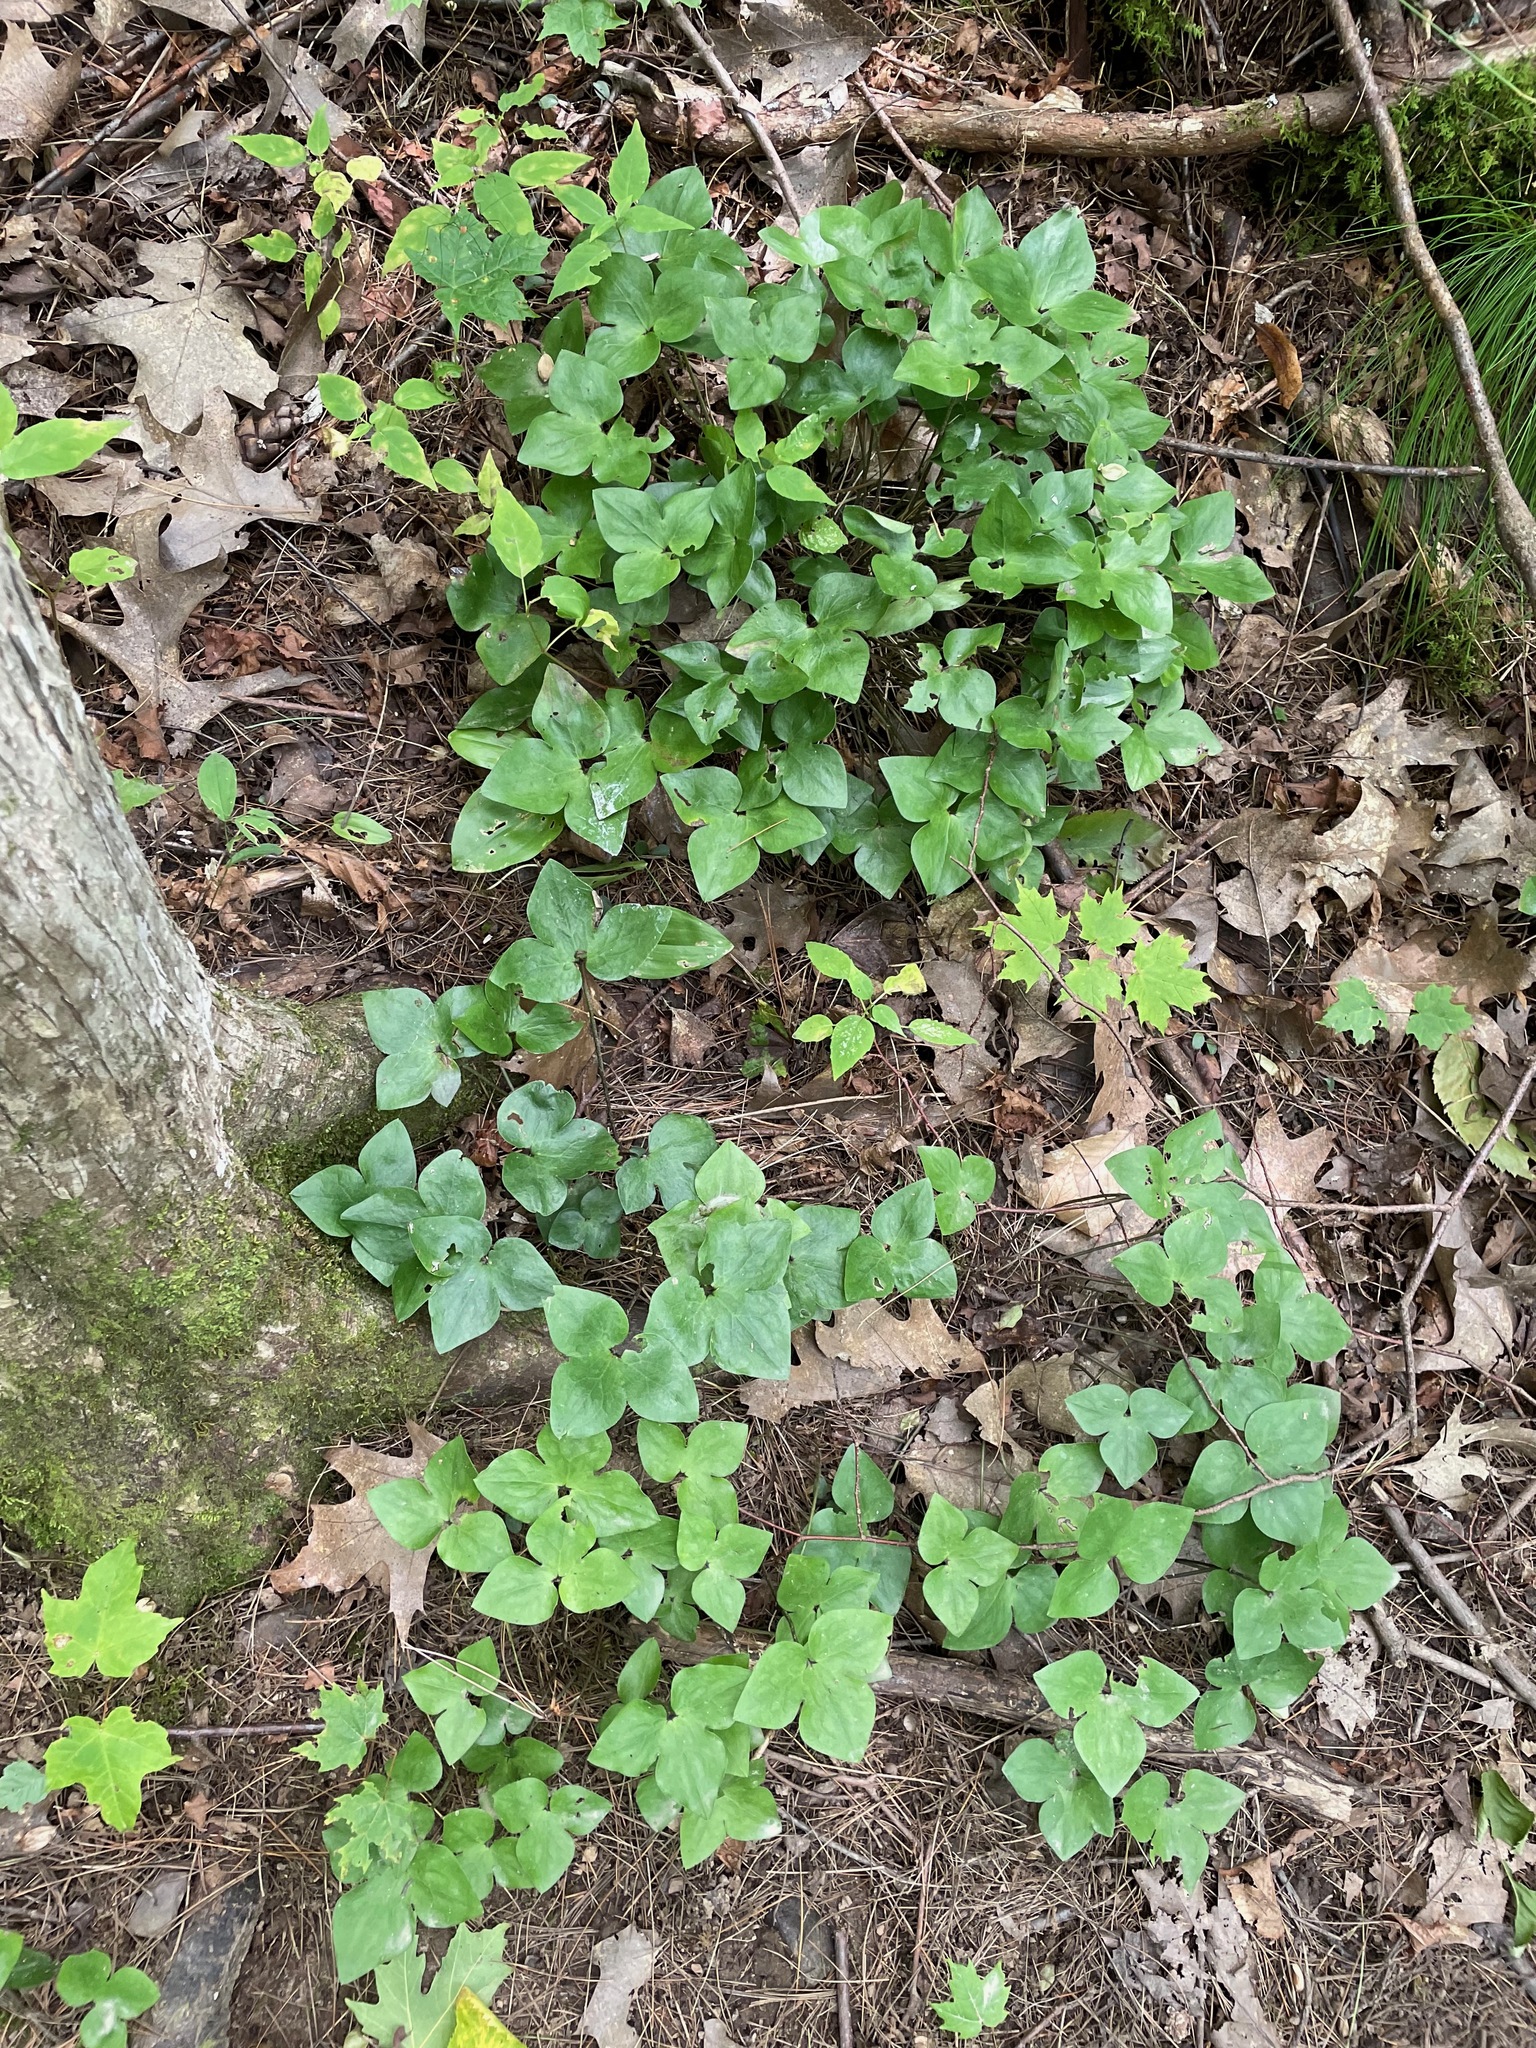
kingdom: Plantae
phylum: Tracheophyta
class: Magnoliopsida
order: Ranunculales
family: Ranunculaceae
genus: Hepatica
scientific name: Hepatica acutiloba
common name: Sharp-lobed hepatica
